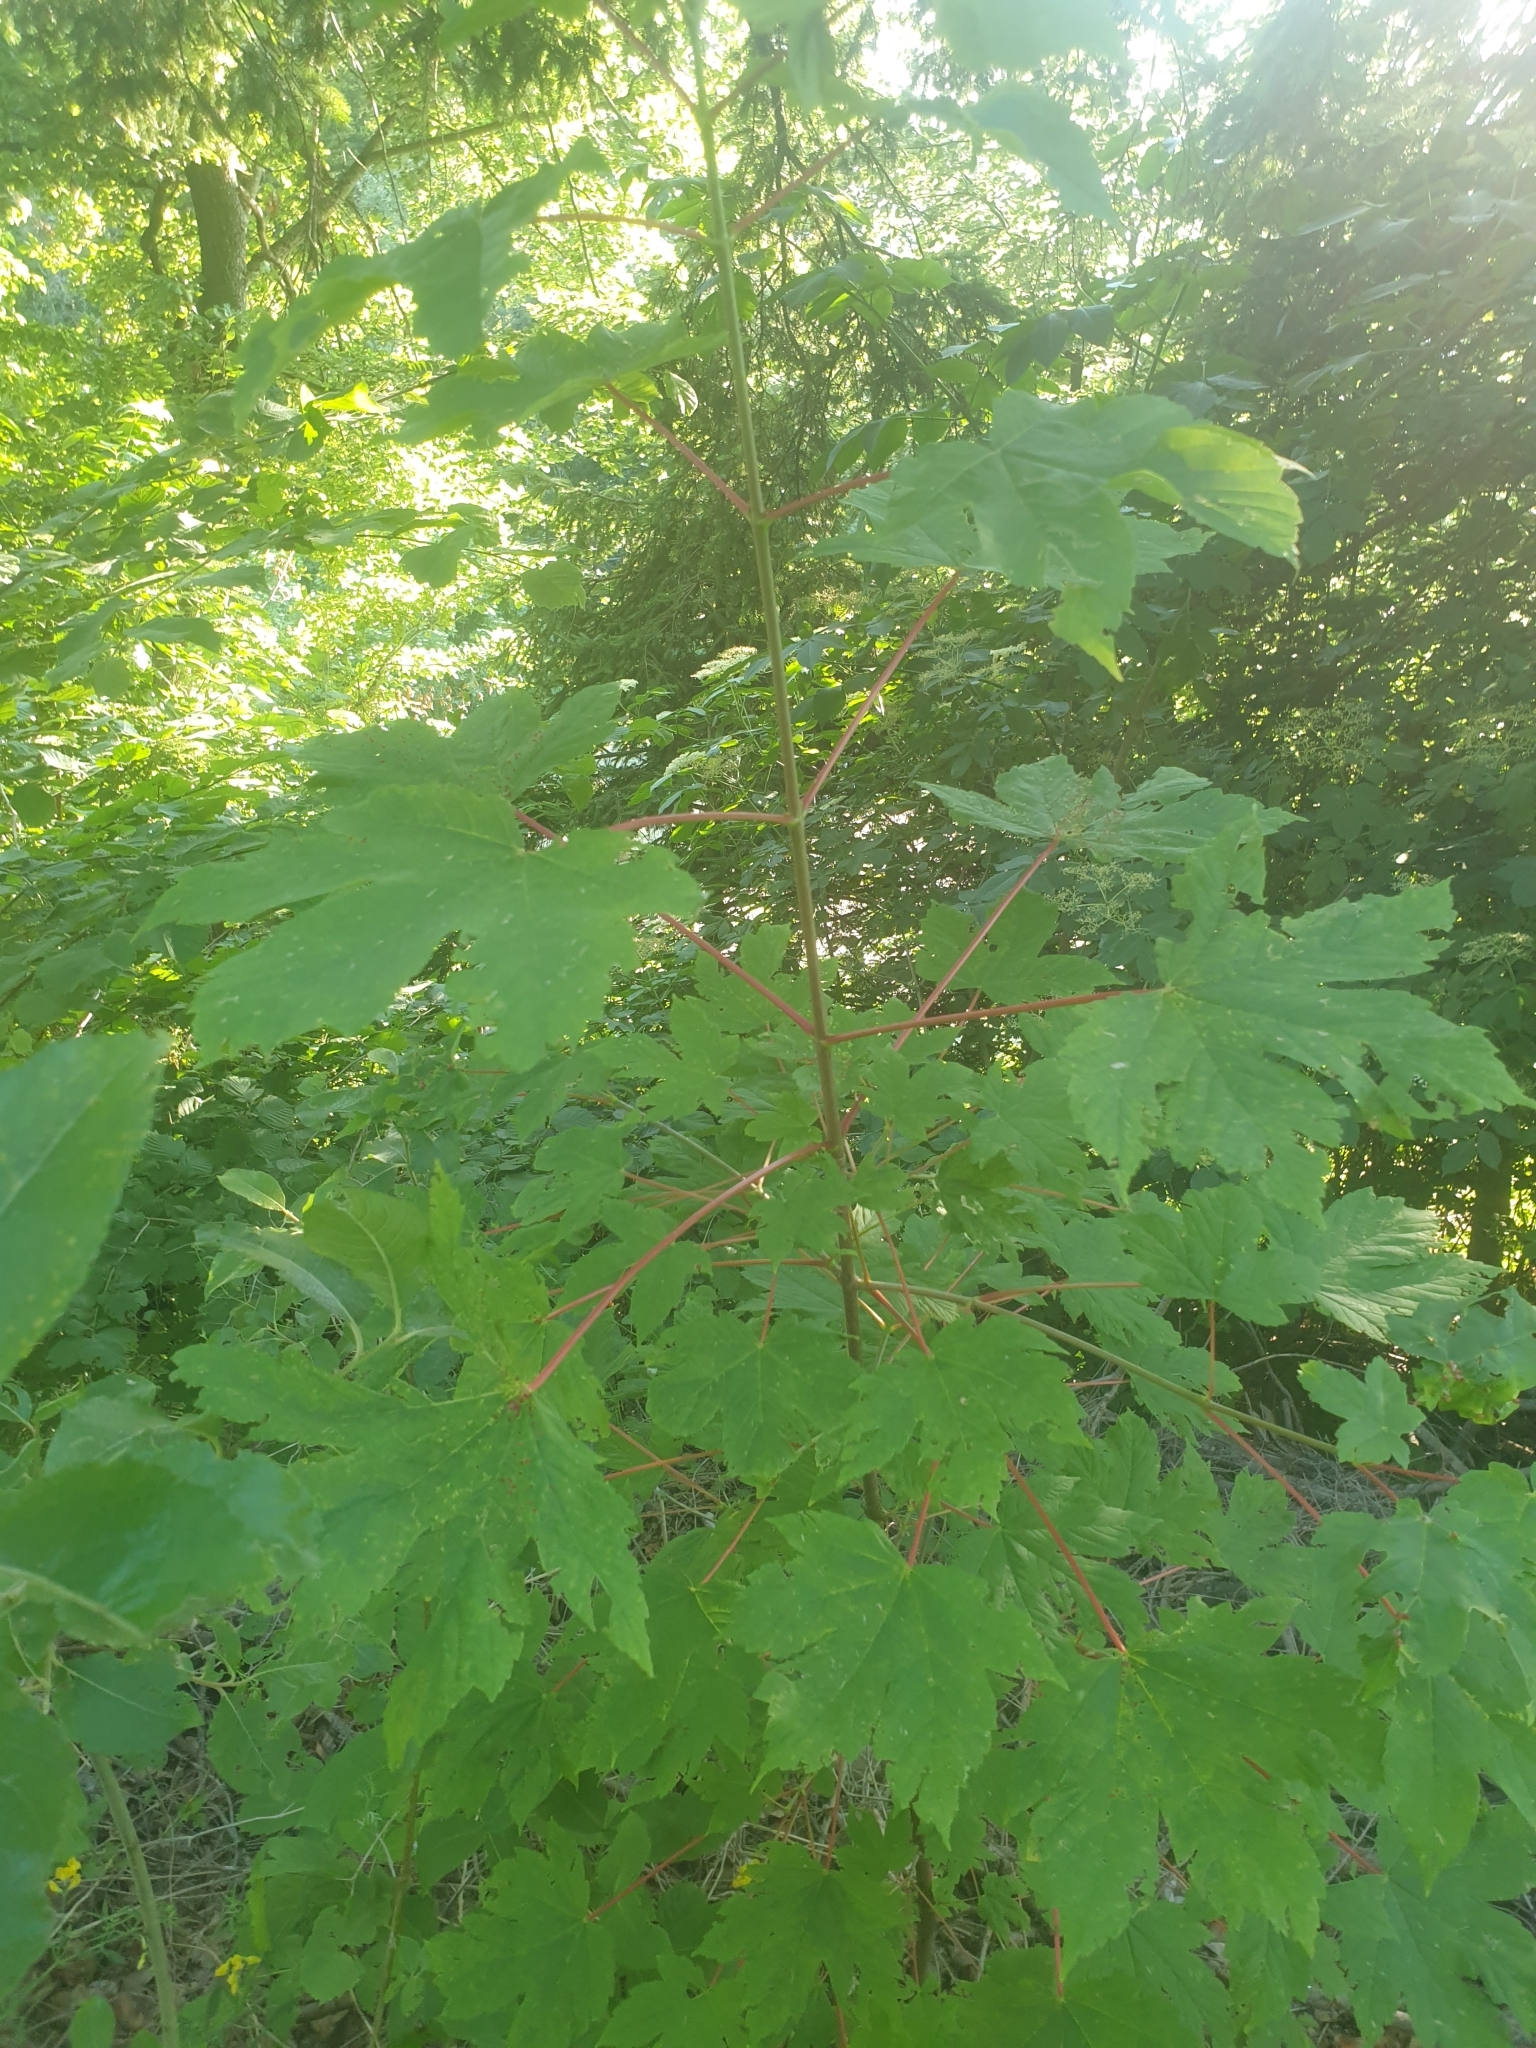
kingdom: Plantae
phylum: Tracheophyta
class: Magnoliopsida
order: Sapindales
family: Sapindaceae
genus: Acer
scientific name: Acer pseudoplatanus
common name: Sycamore
